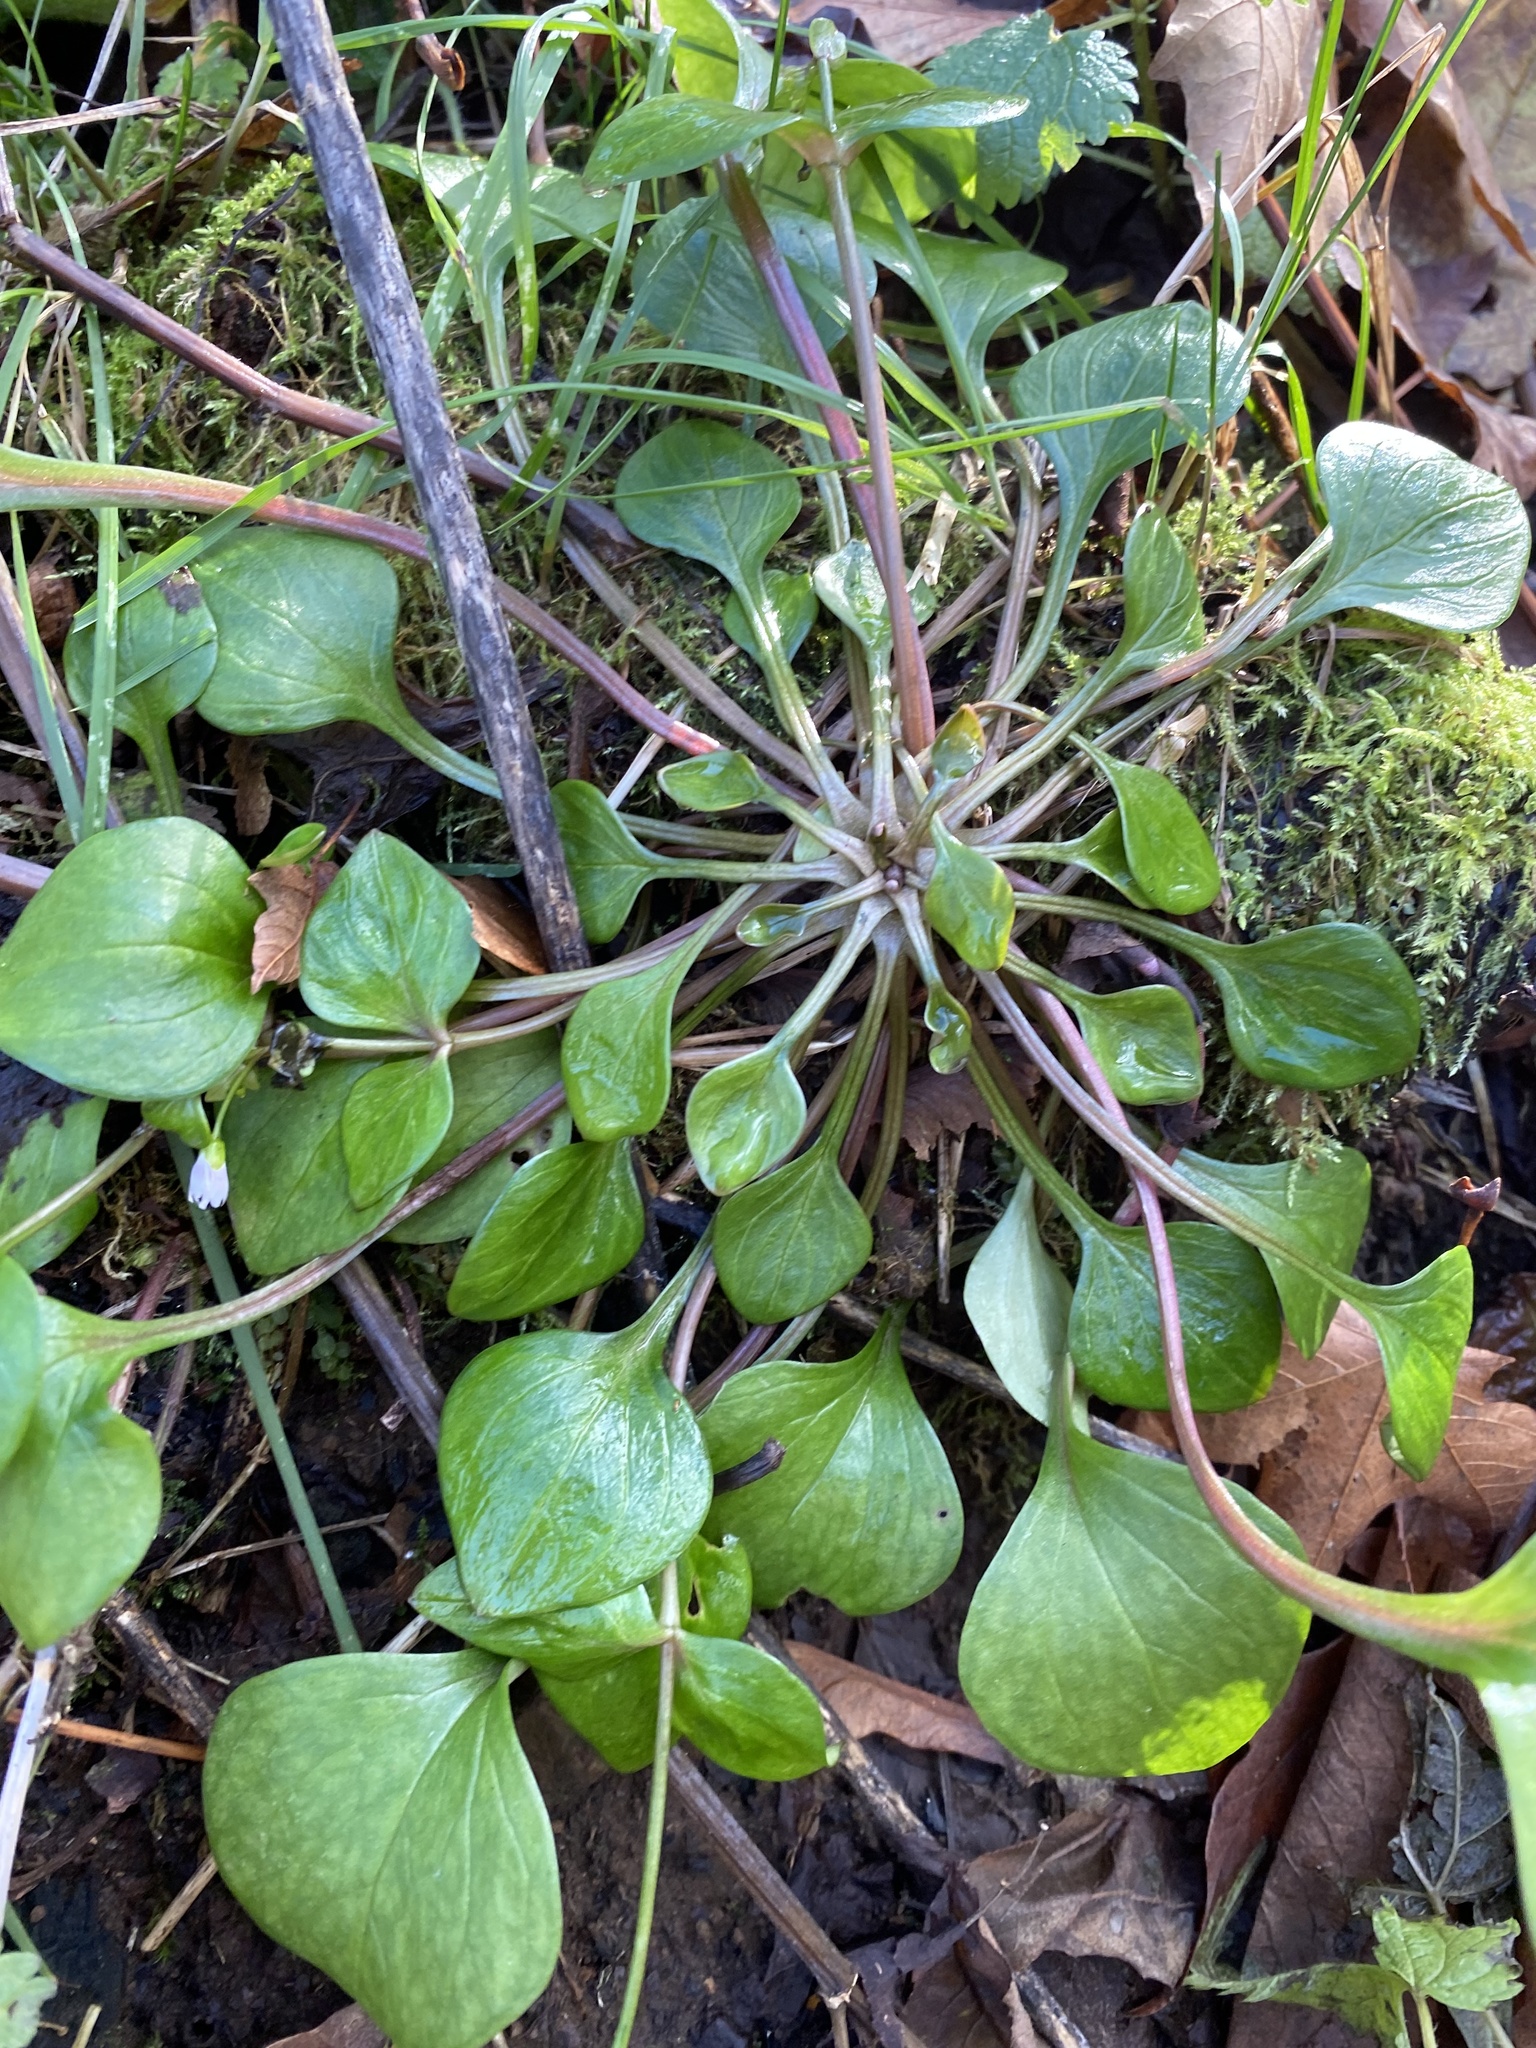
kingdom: Plantae
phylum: Tracheophyta
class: Magnoliopsida
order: Caryophyllales
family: Montiaceae
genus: Claytonia
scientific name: Claytonia sibirica
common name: Pink purslane
